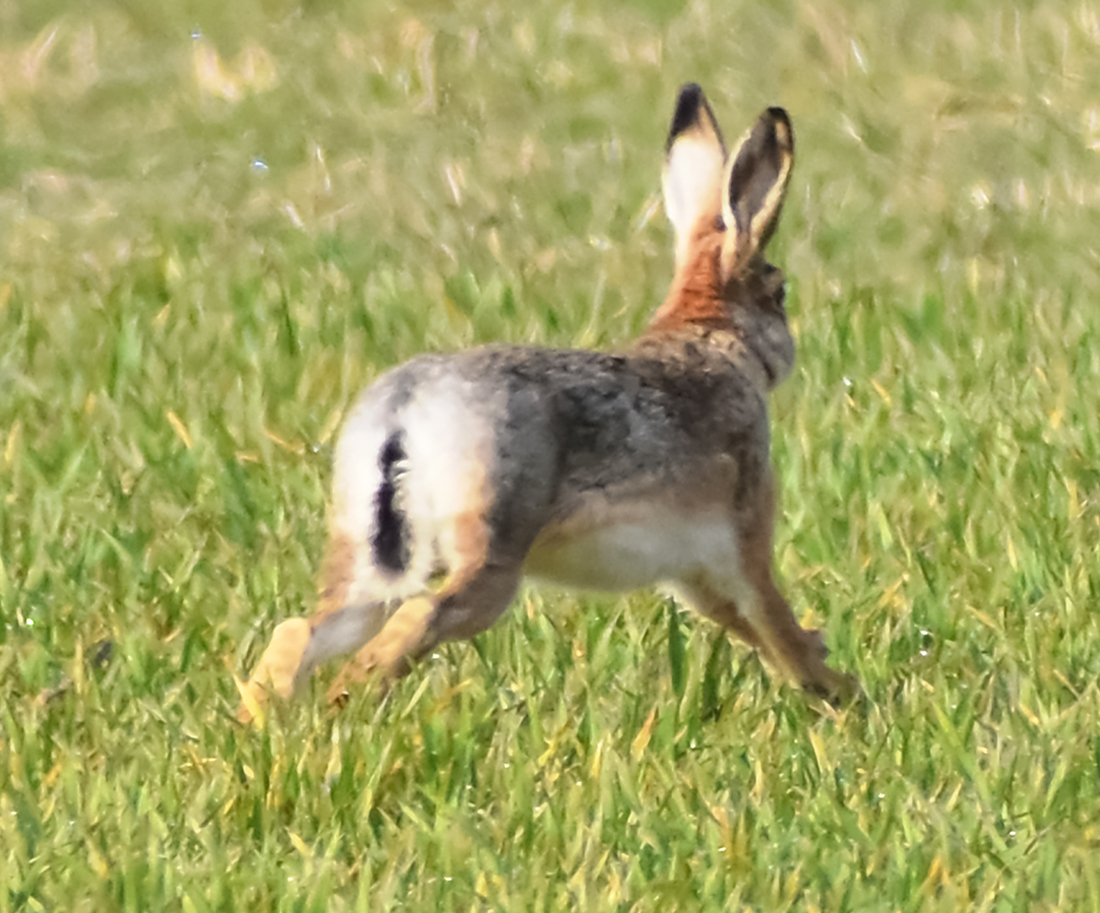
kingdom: Animalia
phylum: Chordata
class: Mammalia
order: Lagomorpha
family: Leporidae
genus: Lepus
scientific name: Lepus europaeus
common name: European hare
